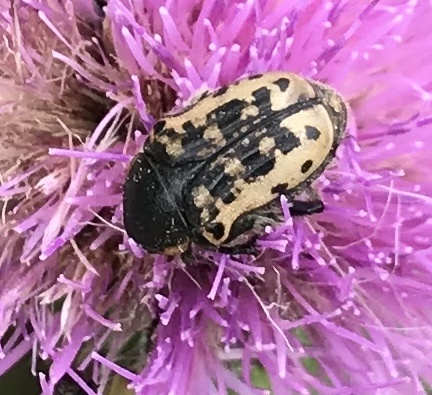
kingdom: Animalia
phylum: Arthropoda
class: Insecta
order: Coleoptera
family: Scarabaeidae
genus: Euphoria
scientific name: Euphoria kernii
